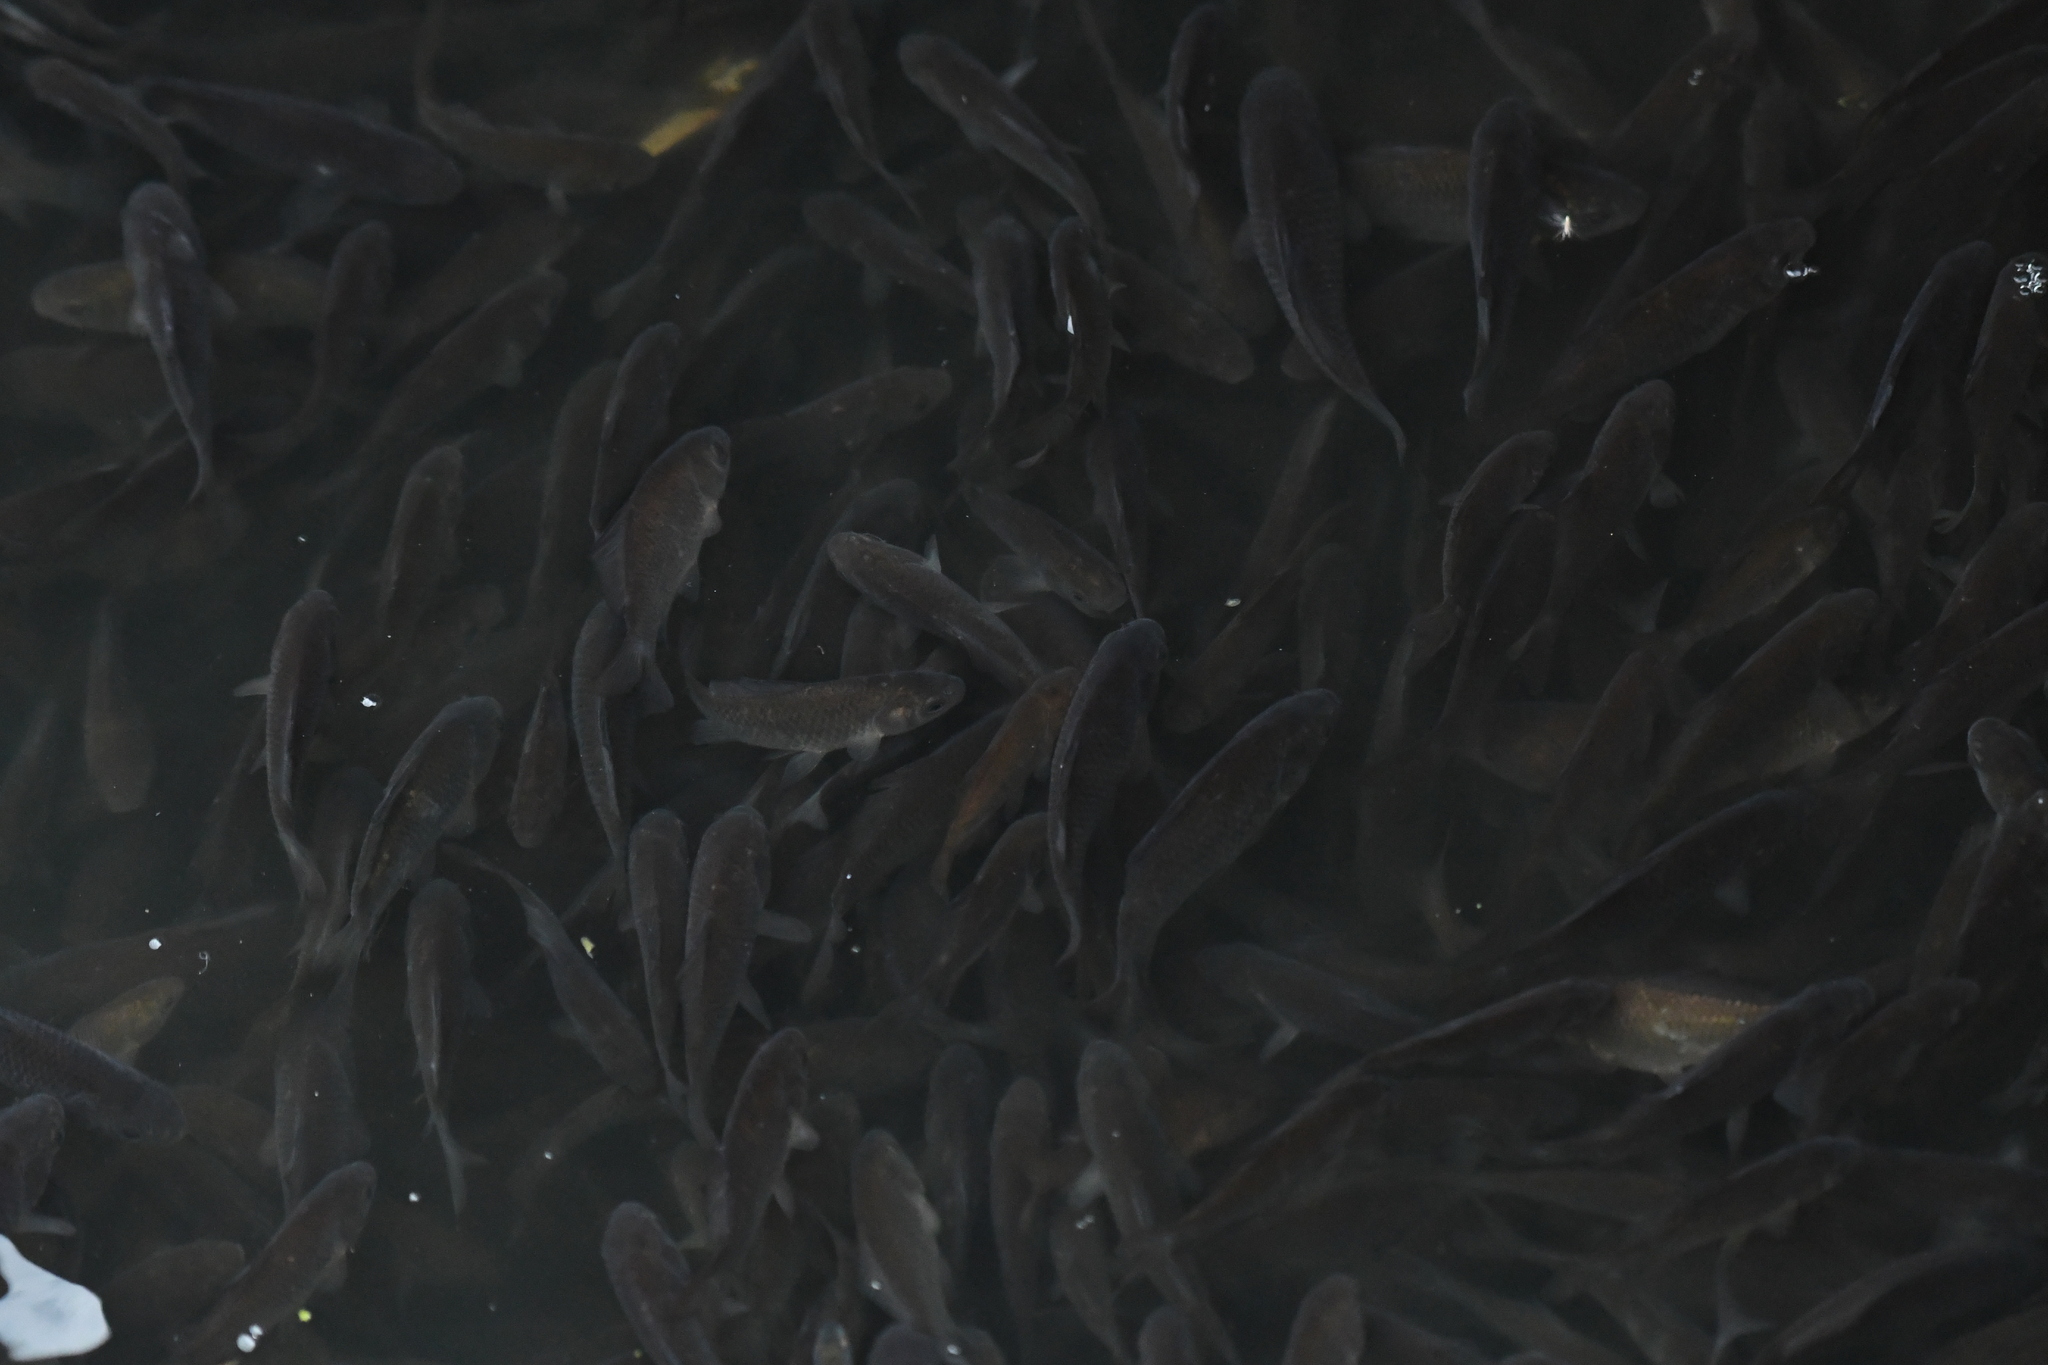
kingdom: Animalia
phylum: Chordata
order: Cypriniformes
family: Cyprinidae
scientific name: Cyprinidae
